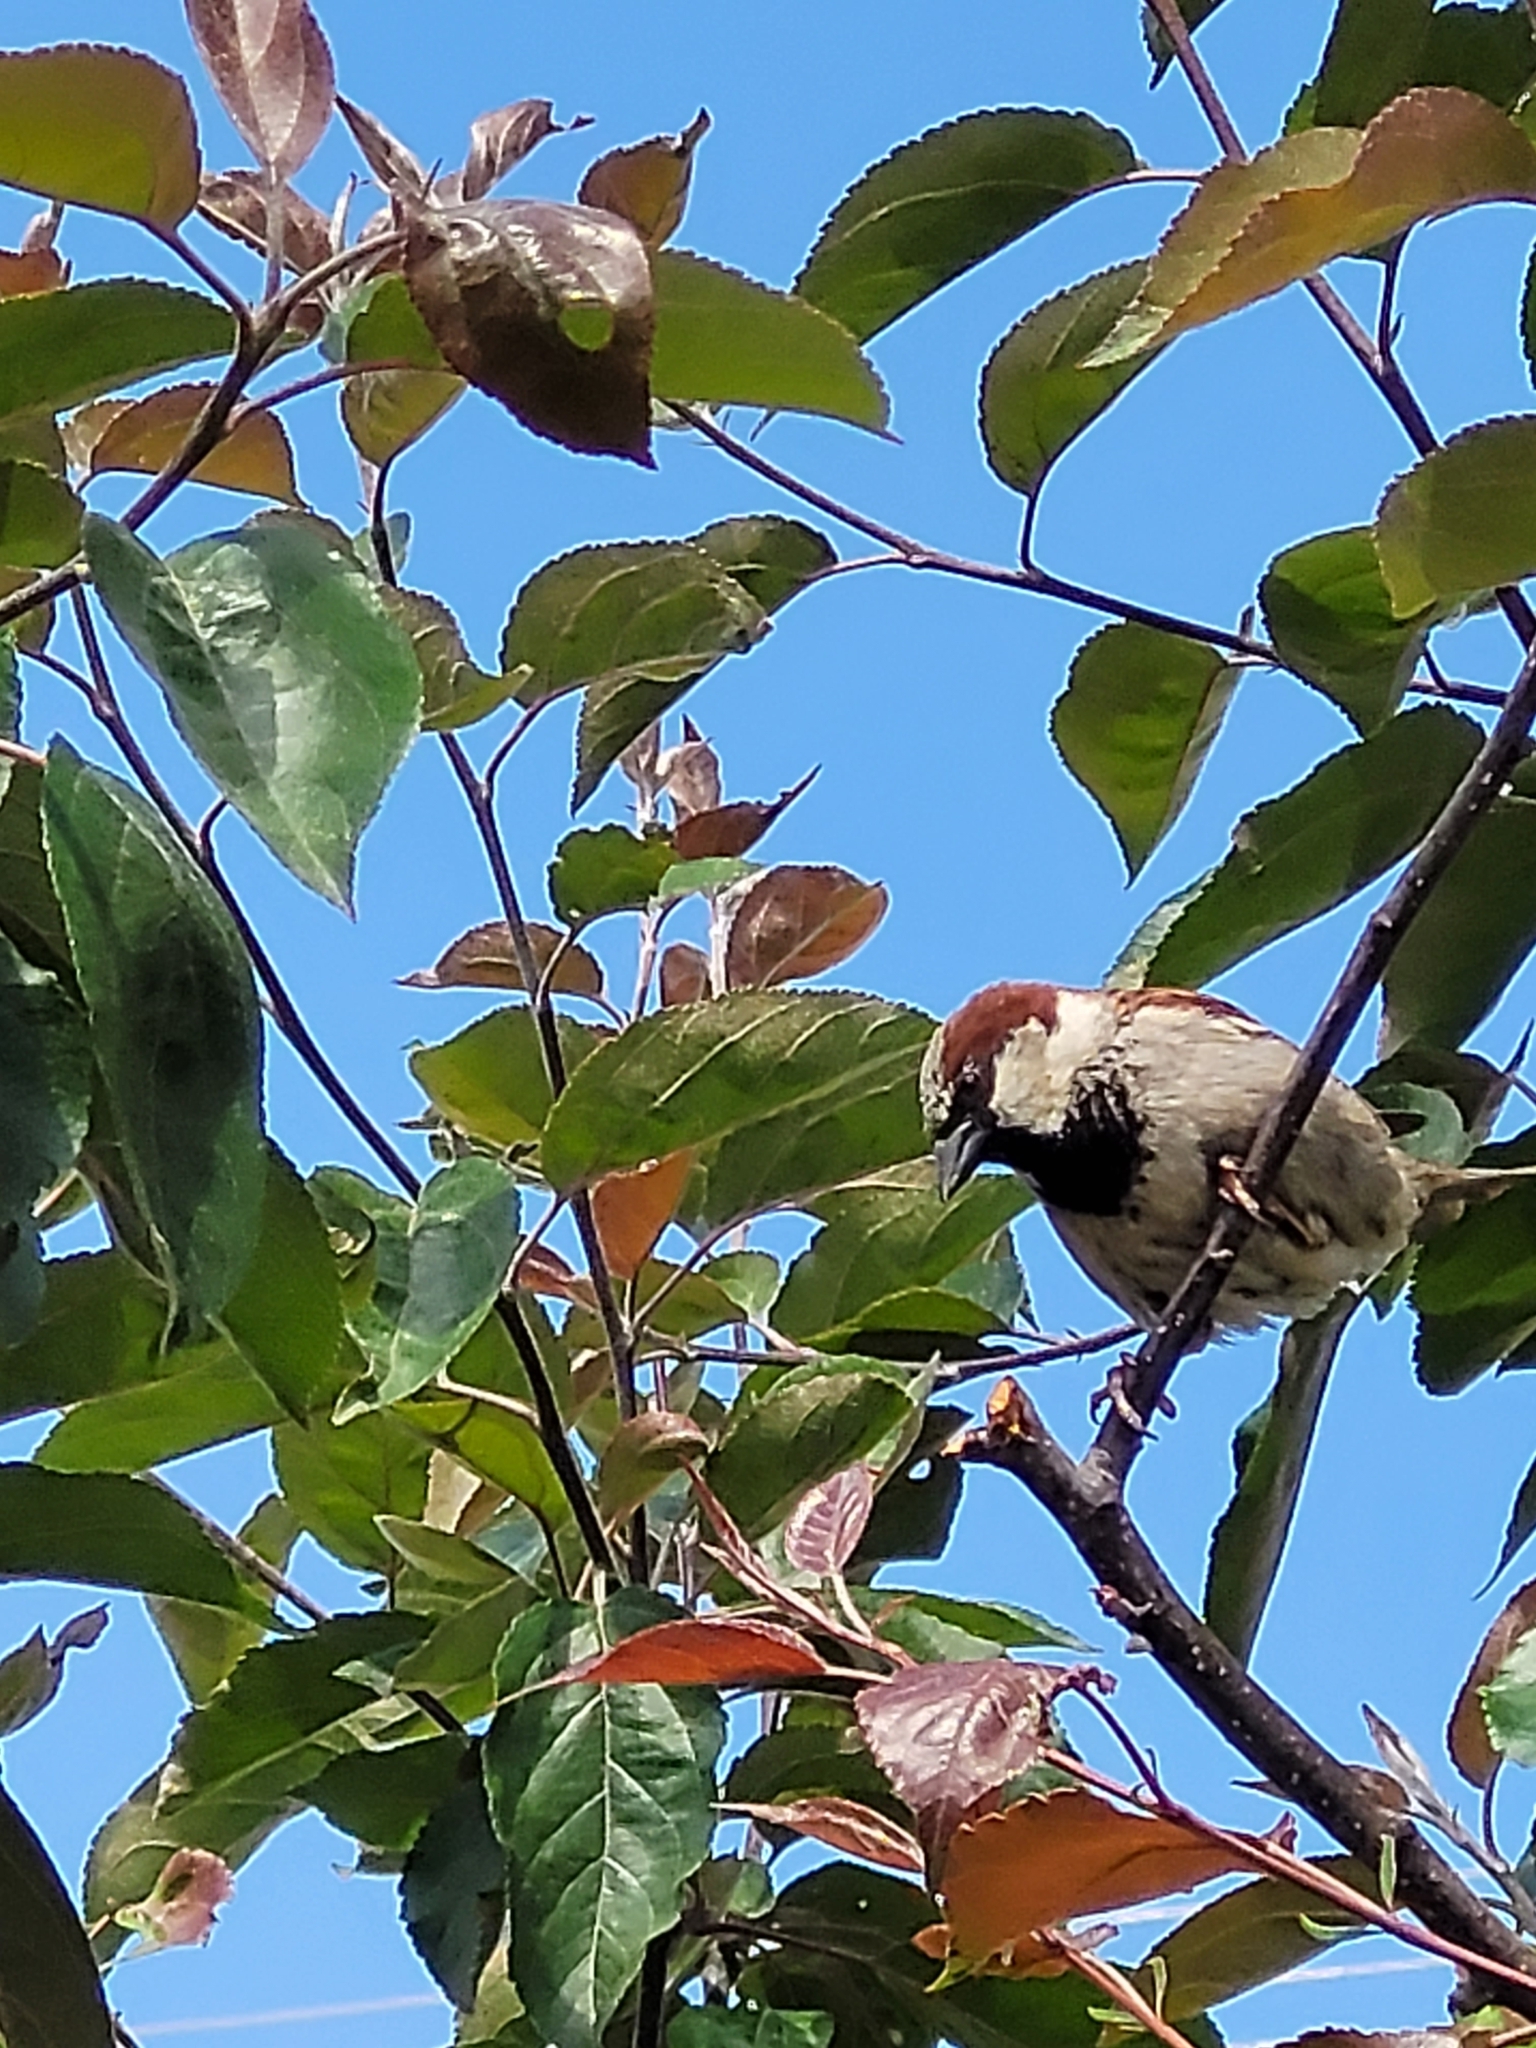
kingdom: Animalia
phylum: Chordata
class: Aves
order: Passeriformes
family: Passeridae
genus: Passer
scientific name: Passer domesticus
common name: House sparrow
